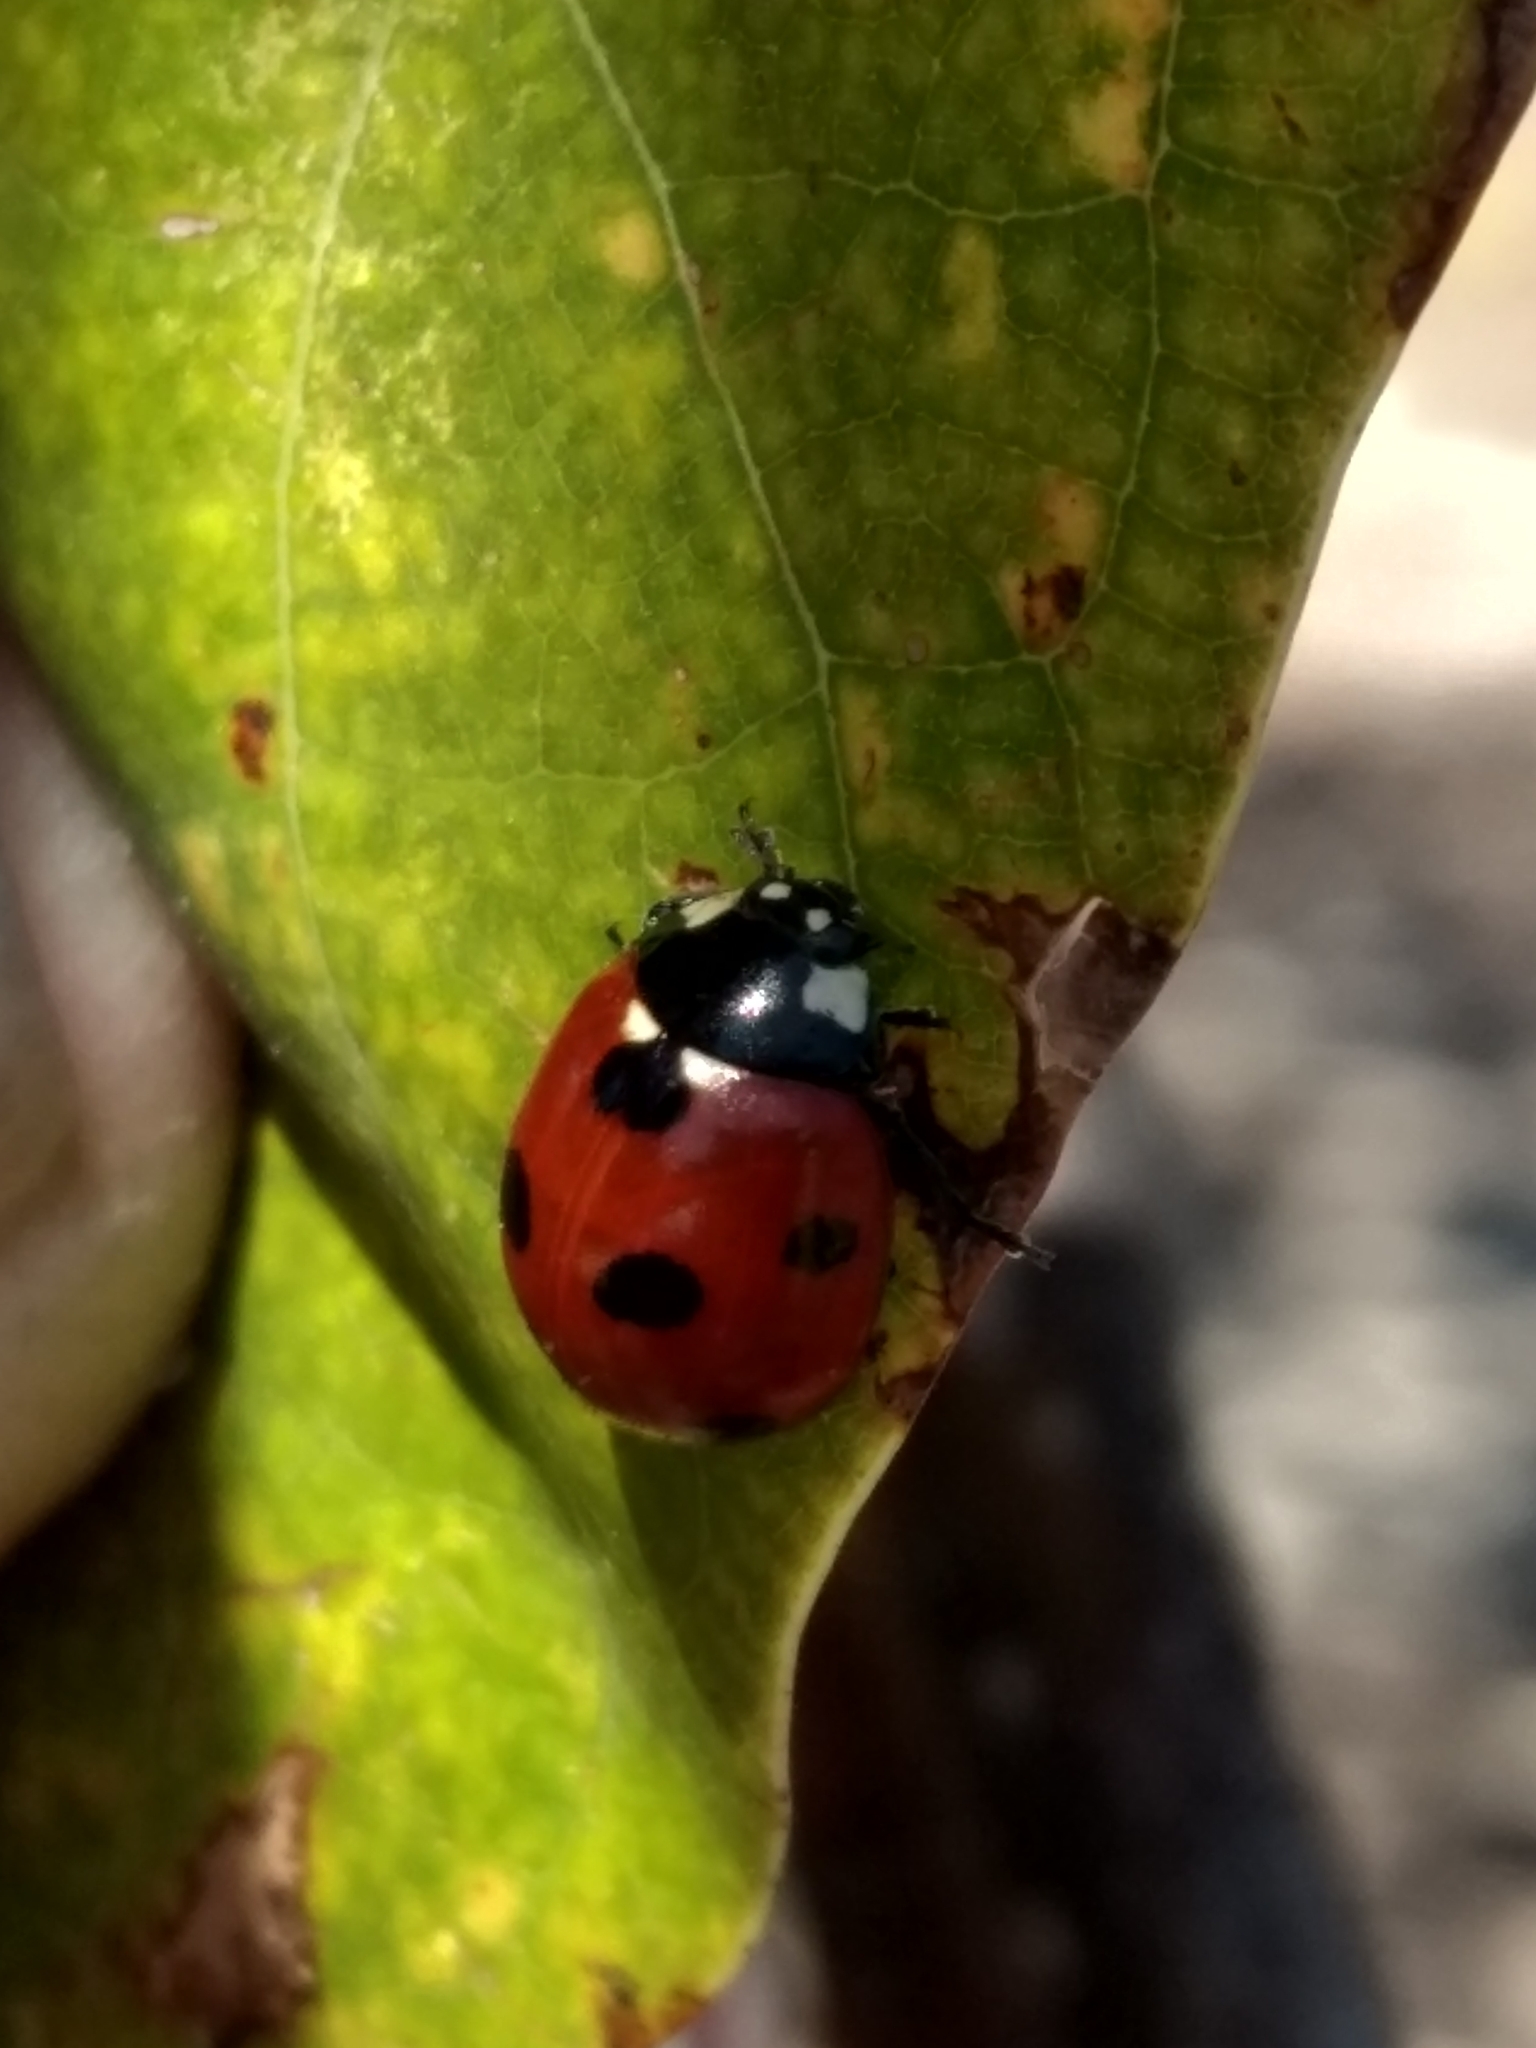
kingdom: Animalia
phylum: Arthropoda
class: Insecta
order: Coleoptera
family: Coccinellidae
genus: Coccinella
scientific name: Coccinella septempunctata
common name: Sevenspotted lady beetle
